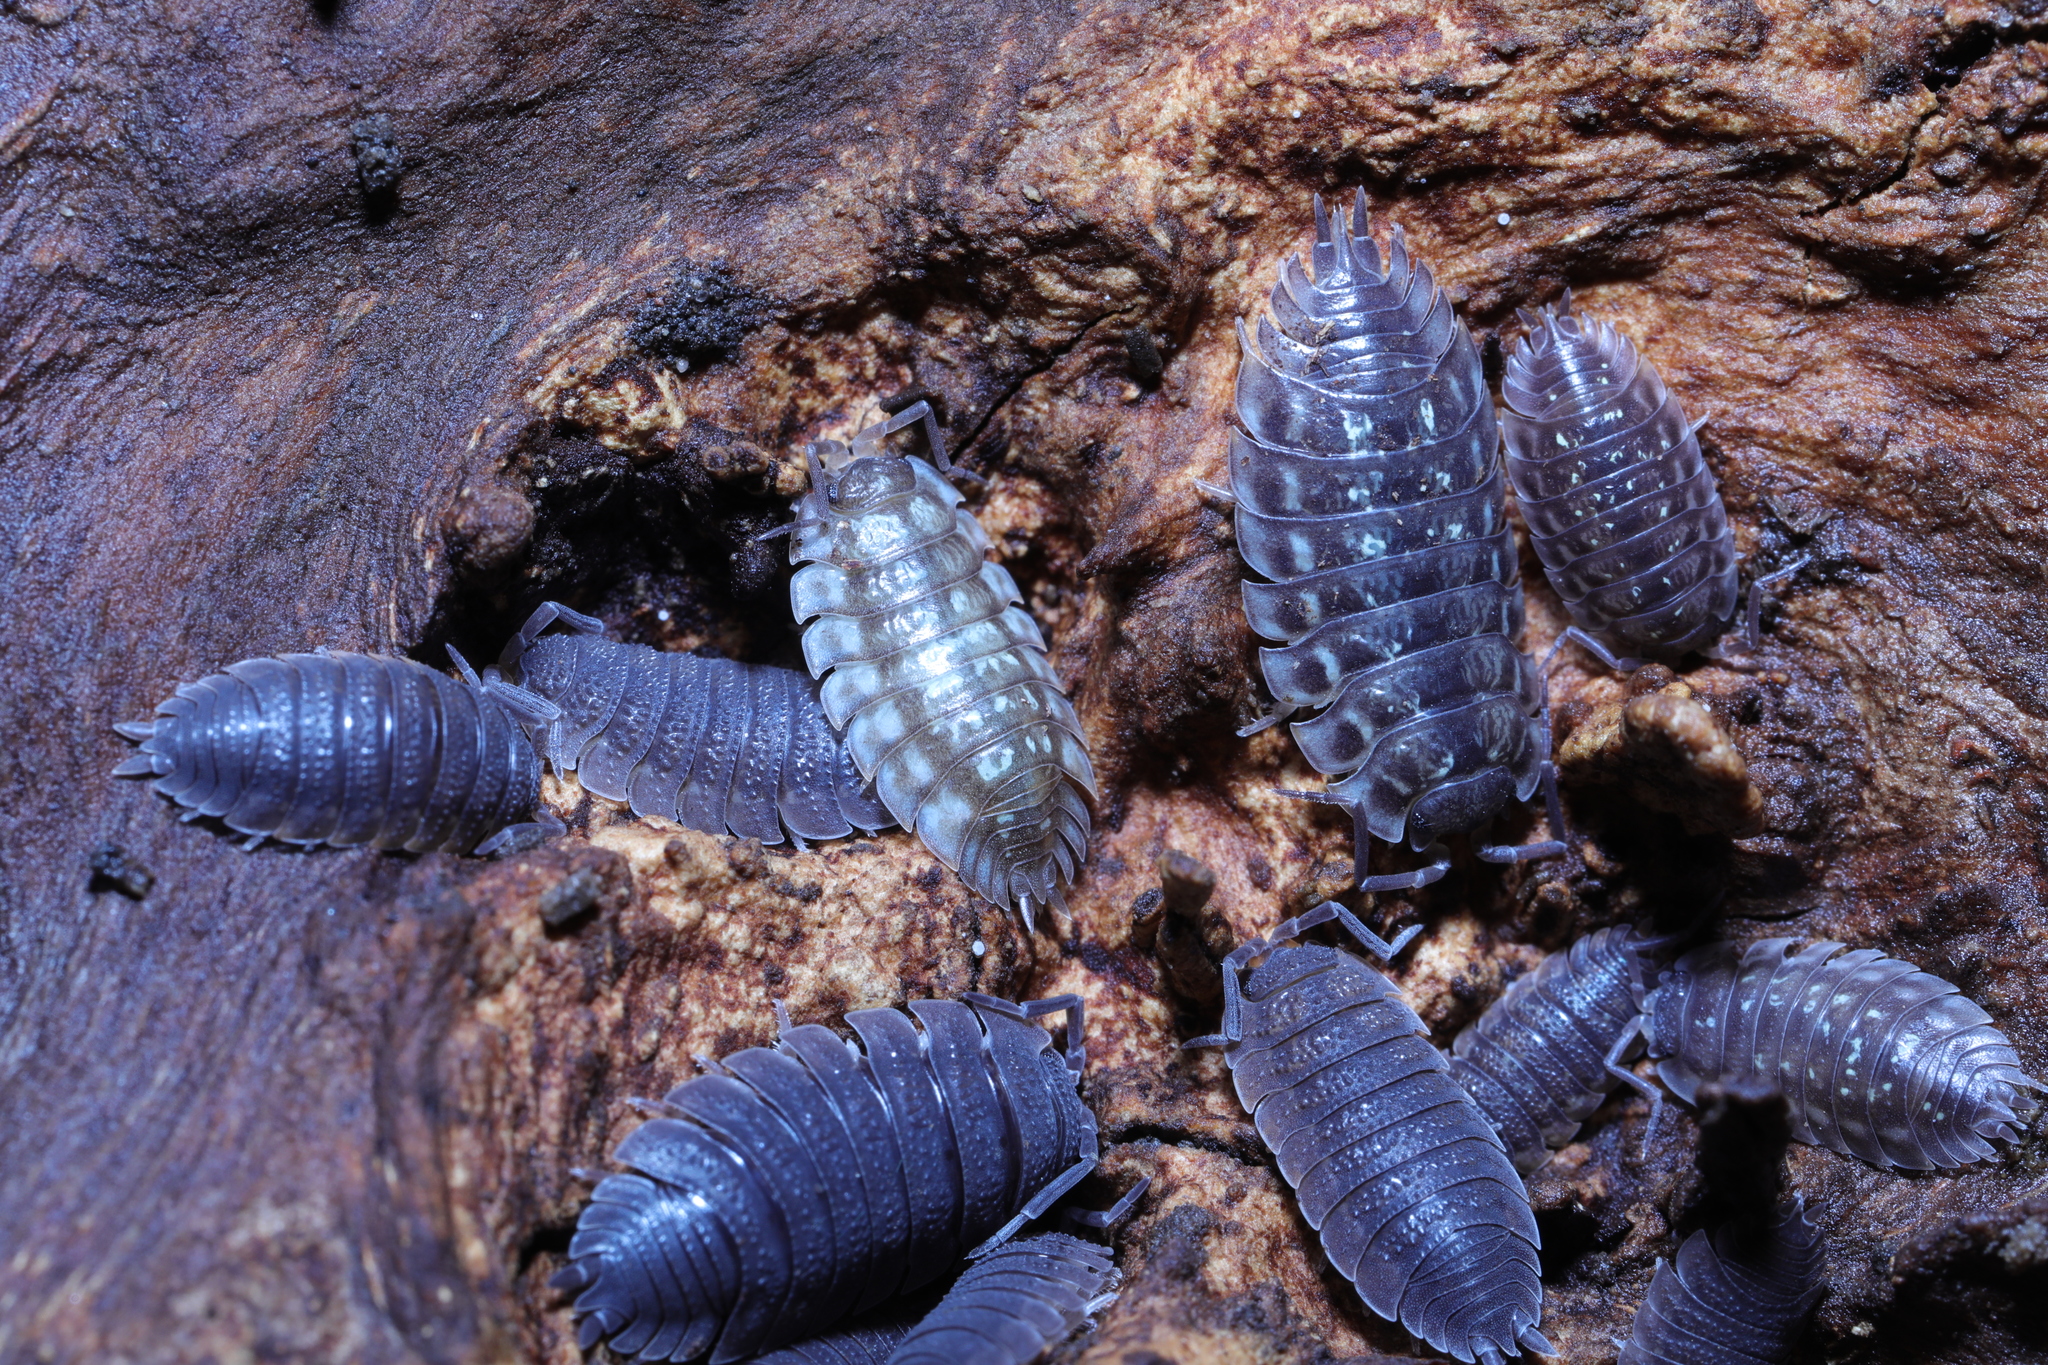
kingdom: Animalia
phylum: Arthropoda
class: Malacostraca
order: Isopoda
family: Oniscidae
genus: Oniscus
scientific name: Oniscus asellus
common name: Common shiny woodlouse
